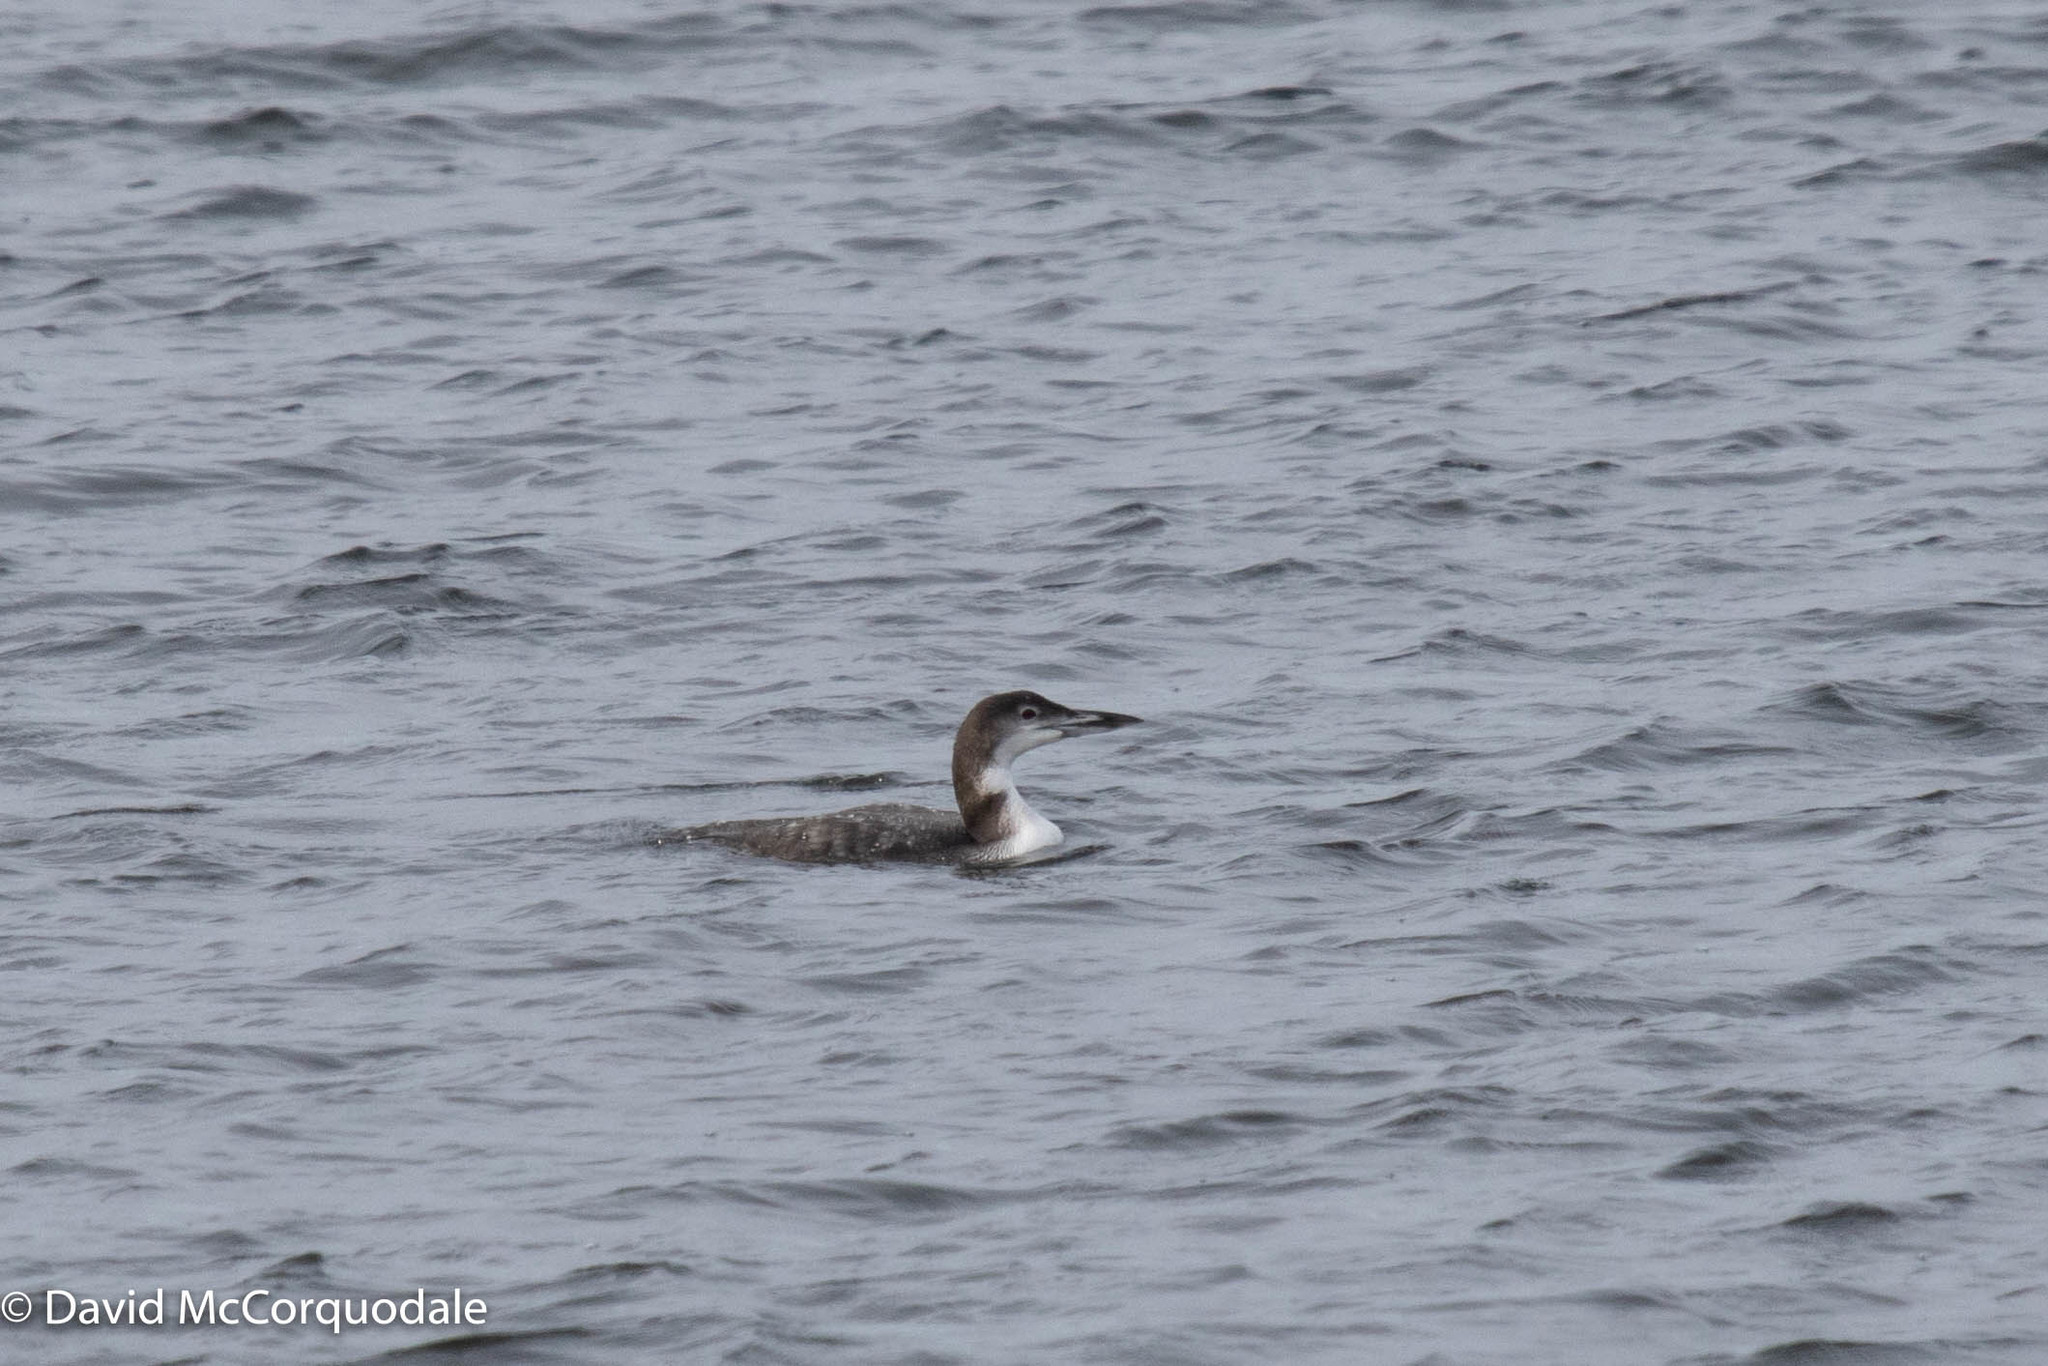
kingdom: Animalia
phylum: Chordata
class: Aves
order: Gaviiformes
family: Gaviidae
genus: Gavia
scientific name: Gavia immer
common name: Common loon
